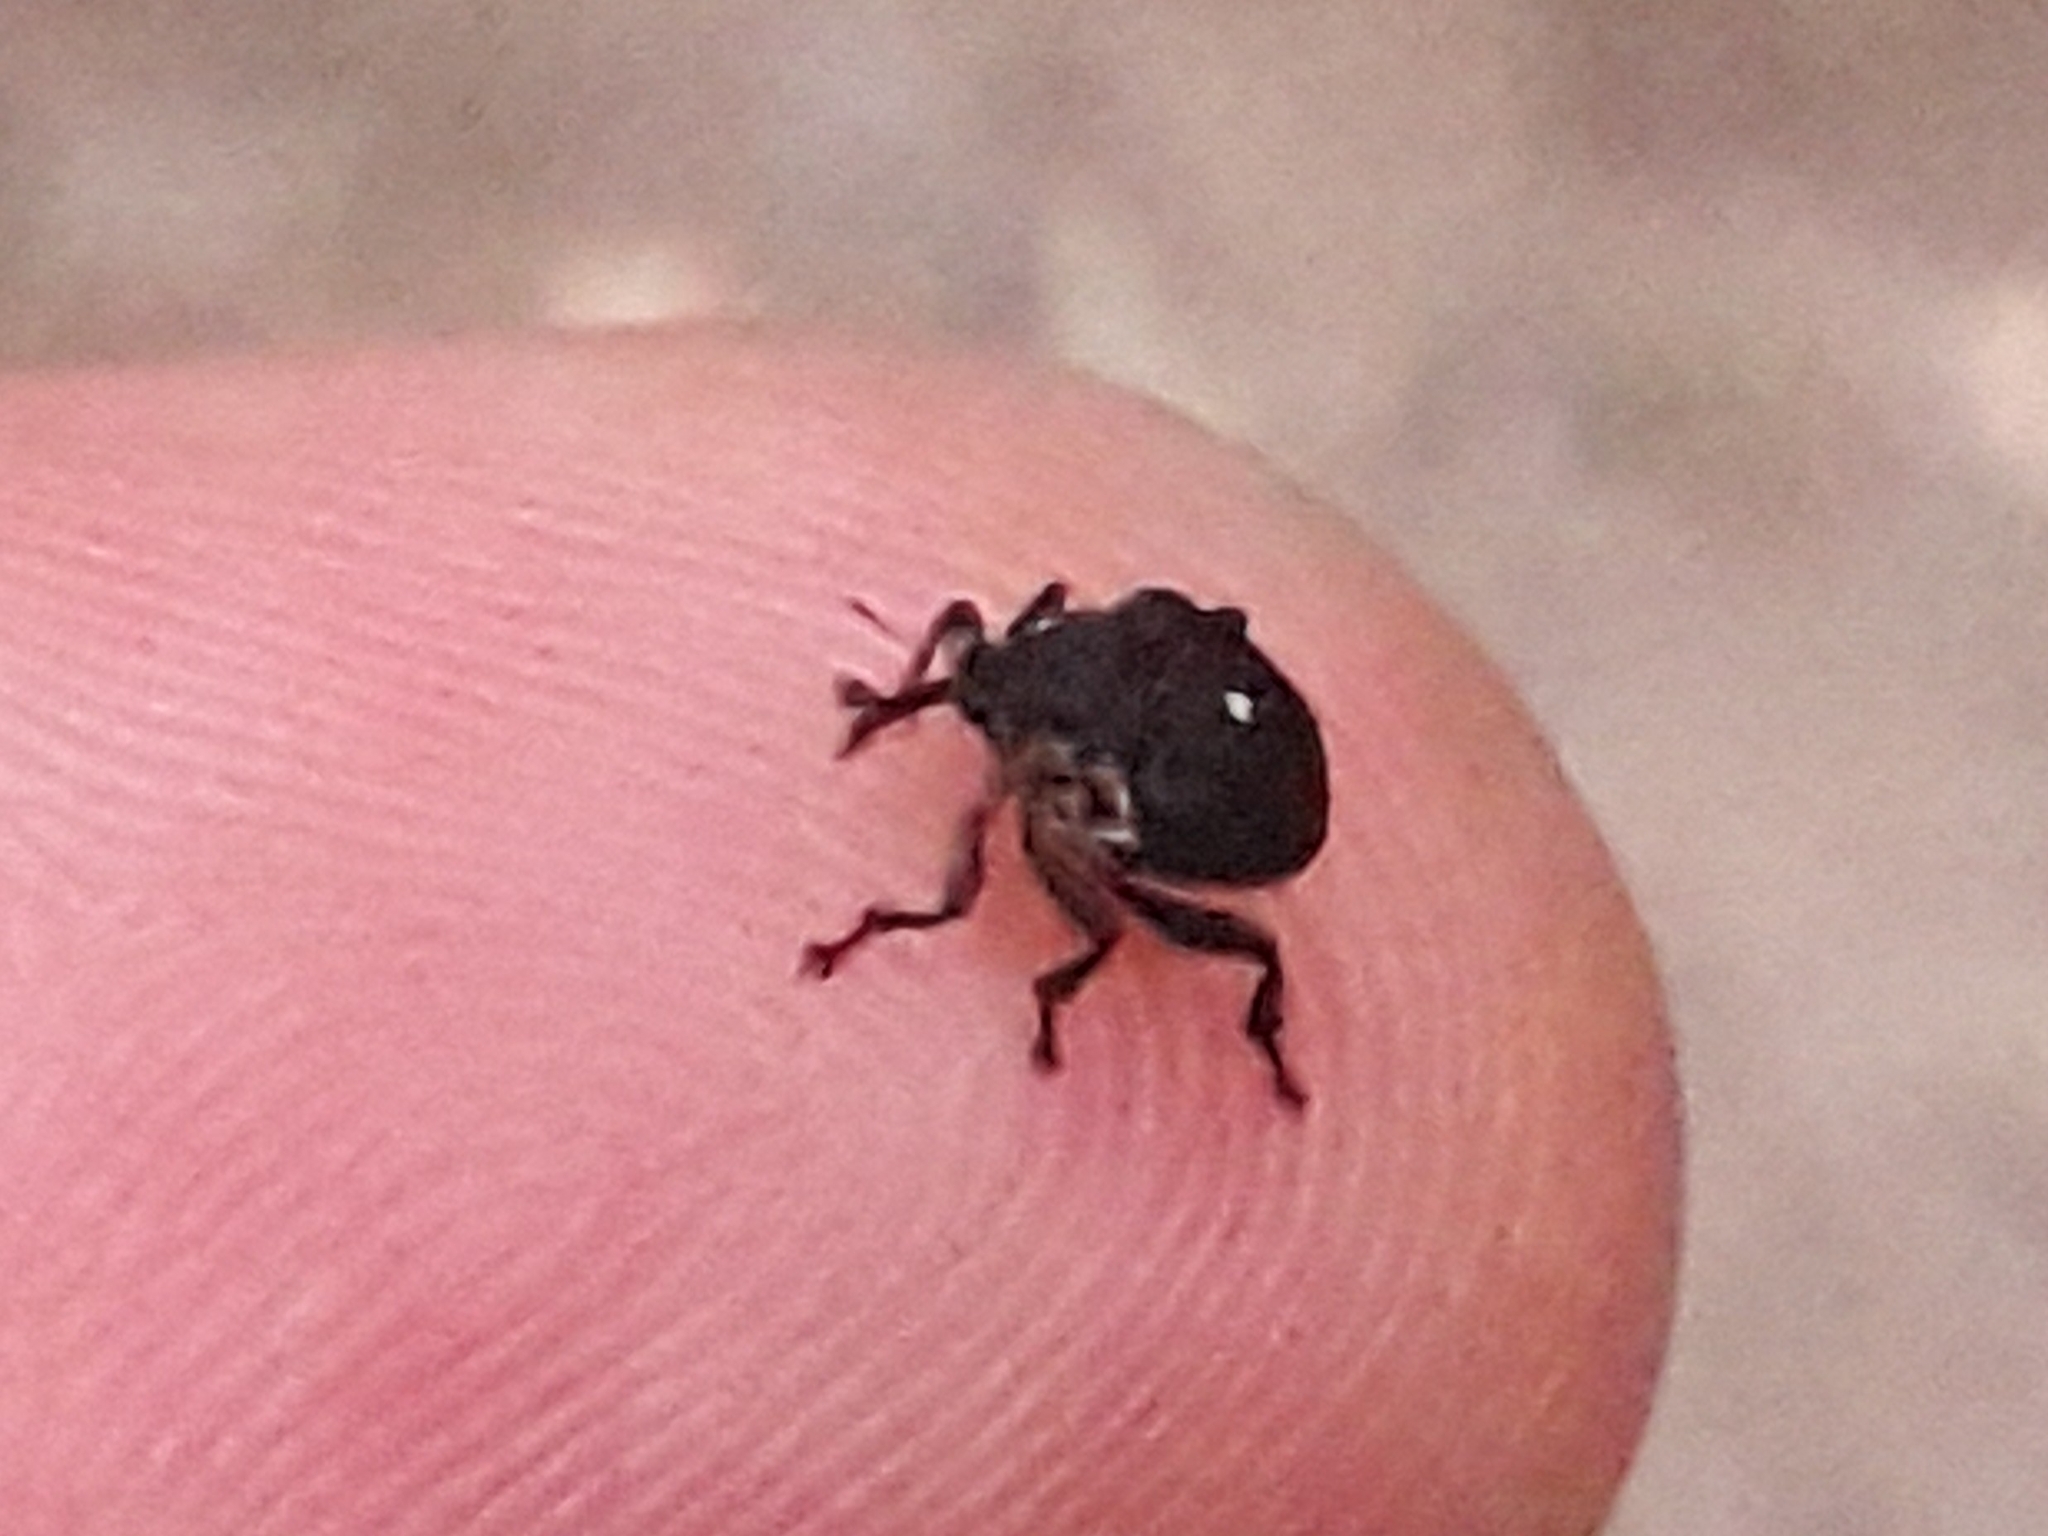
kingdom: Animalia
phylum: Arthropoda
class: Insecta
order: Coleoptera
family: Curculionidae
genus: Mononychus
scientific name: Mononychus punctumalbum
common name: Iris weevil
